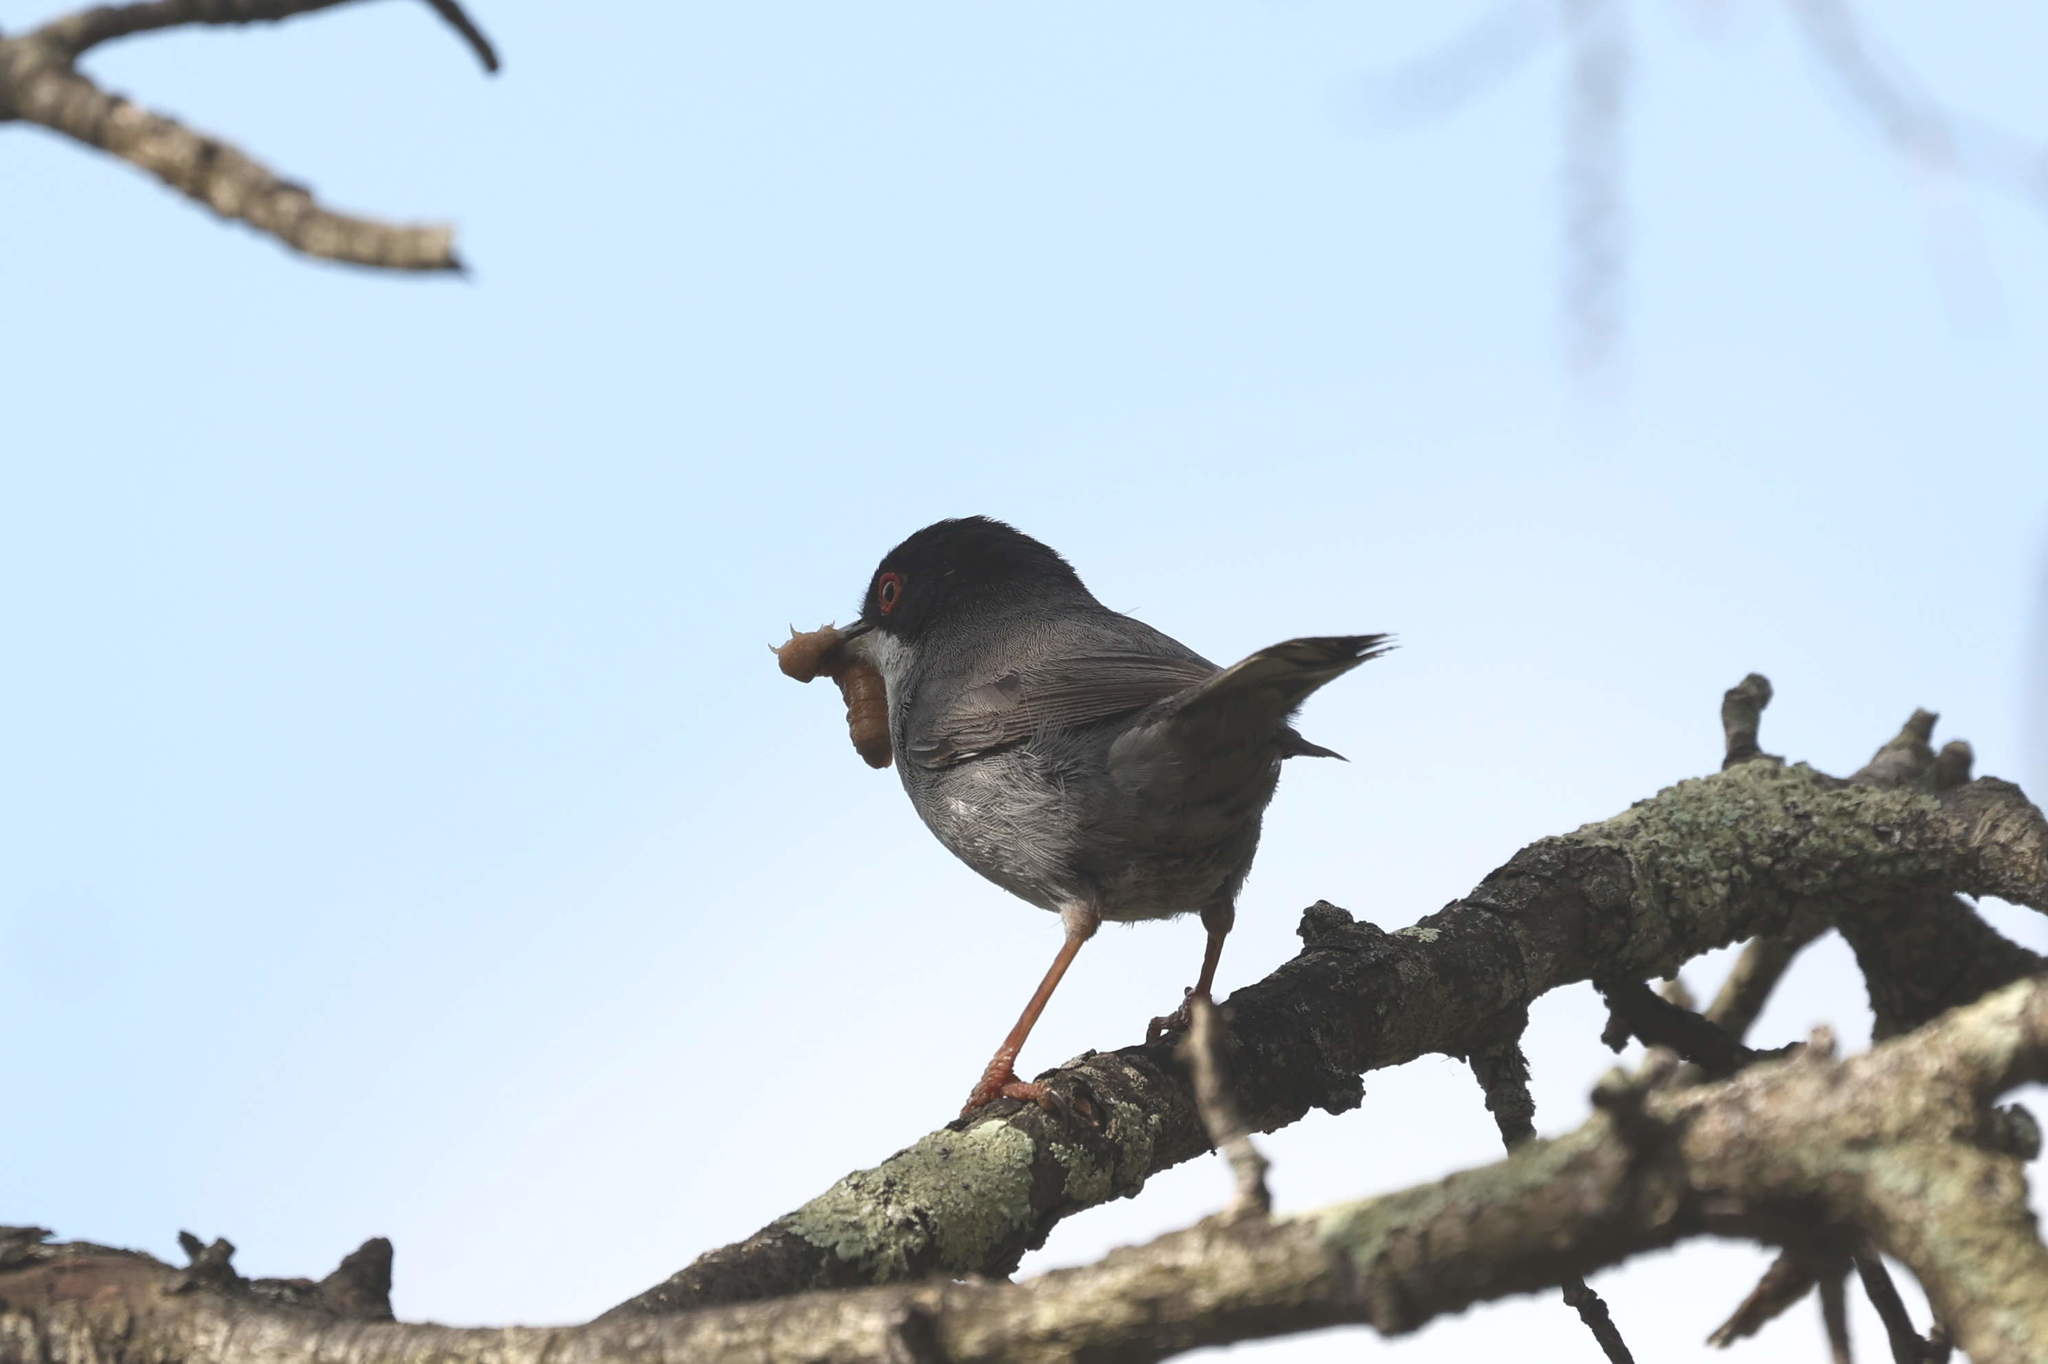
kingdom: Animalia
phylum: Chordata
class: Aves
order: Passeriformes
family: Sylviidae
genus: Curruca
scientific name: Curruca melanocephala
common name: Sardinian warbler
